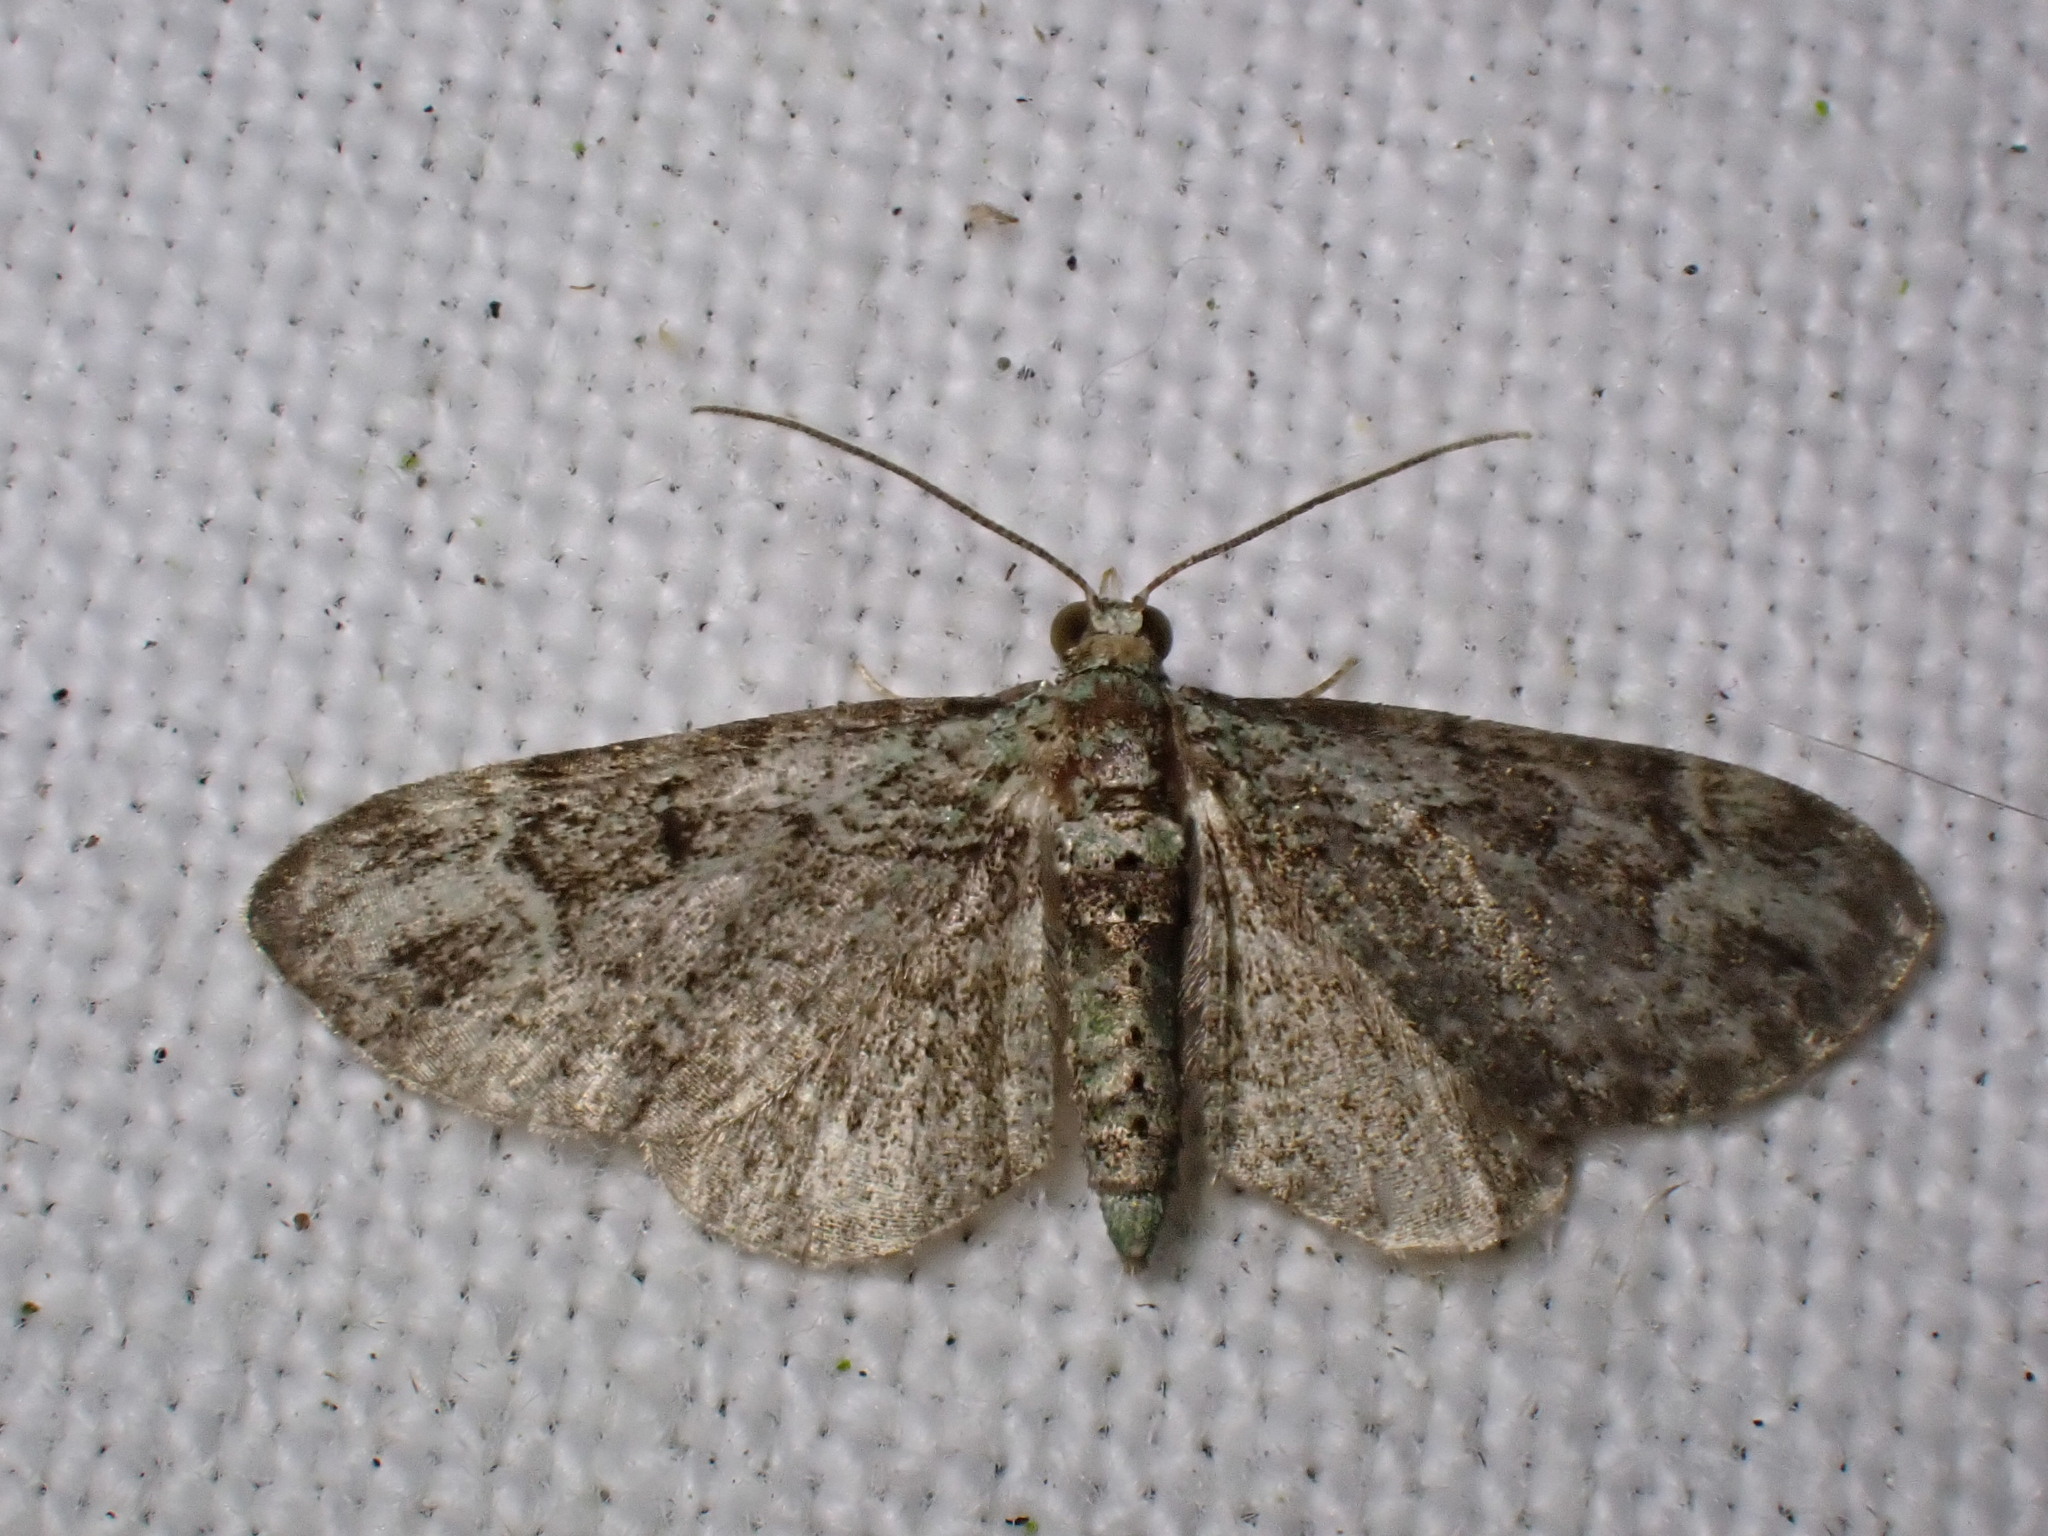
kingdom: Animalia
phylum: Arthropoda
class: Insecta
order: Lepidoptera
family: Geometridae
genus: Pasiphila
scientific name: Pasiphila rectangulata
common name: Green pug
